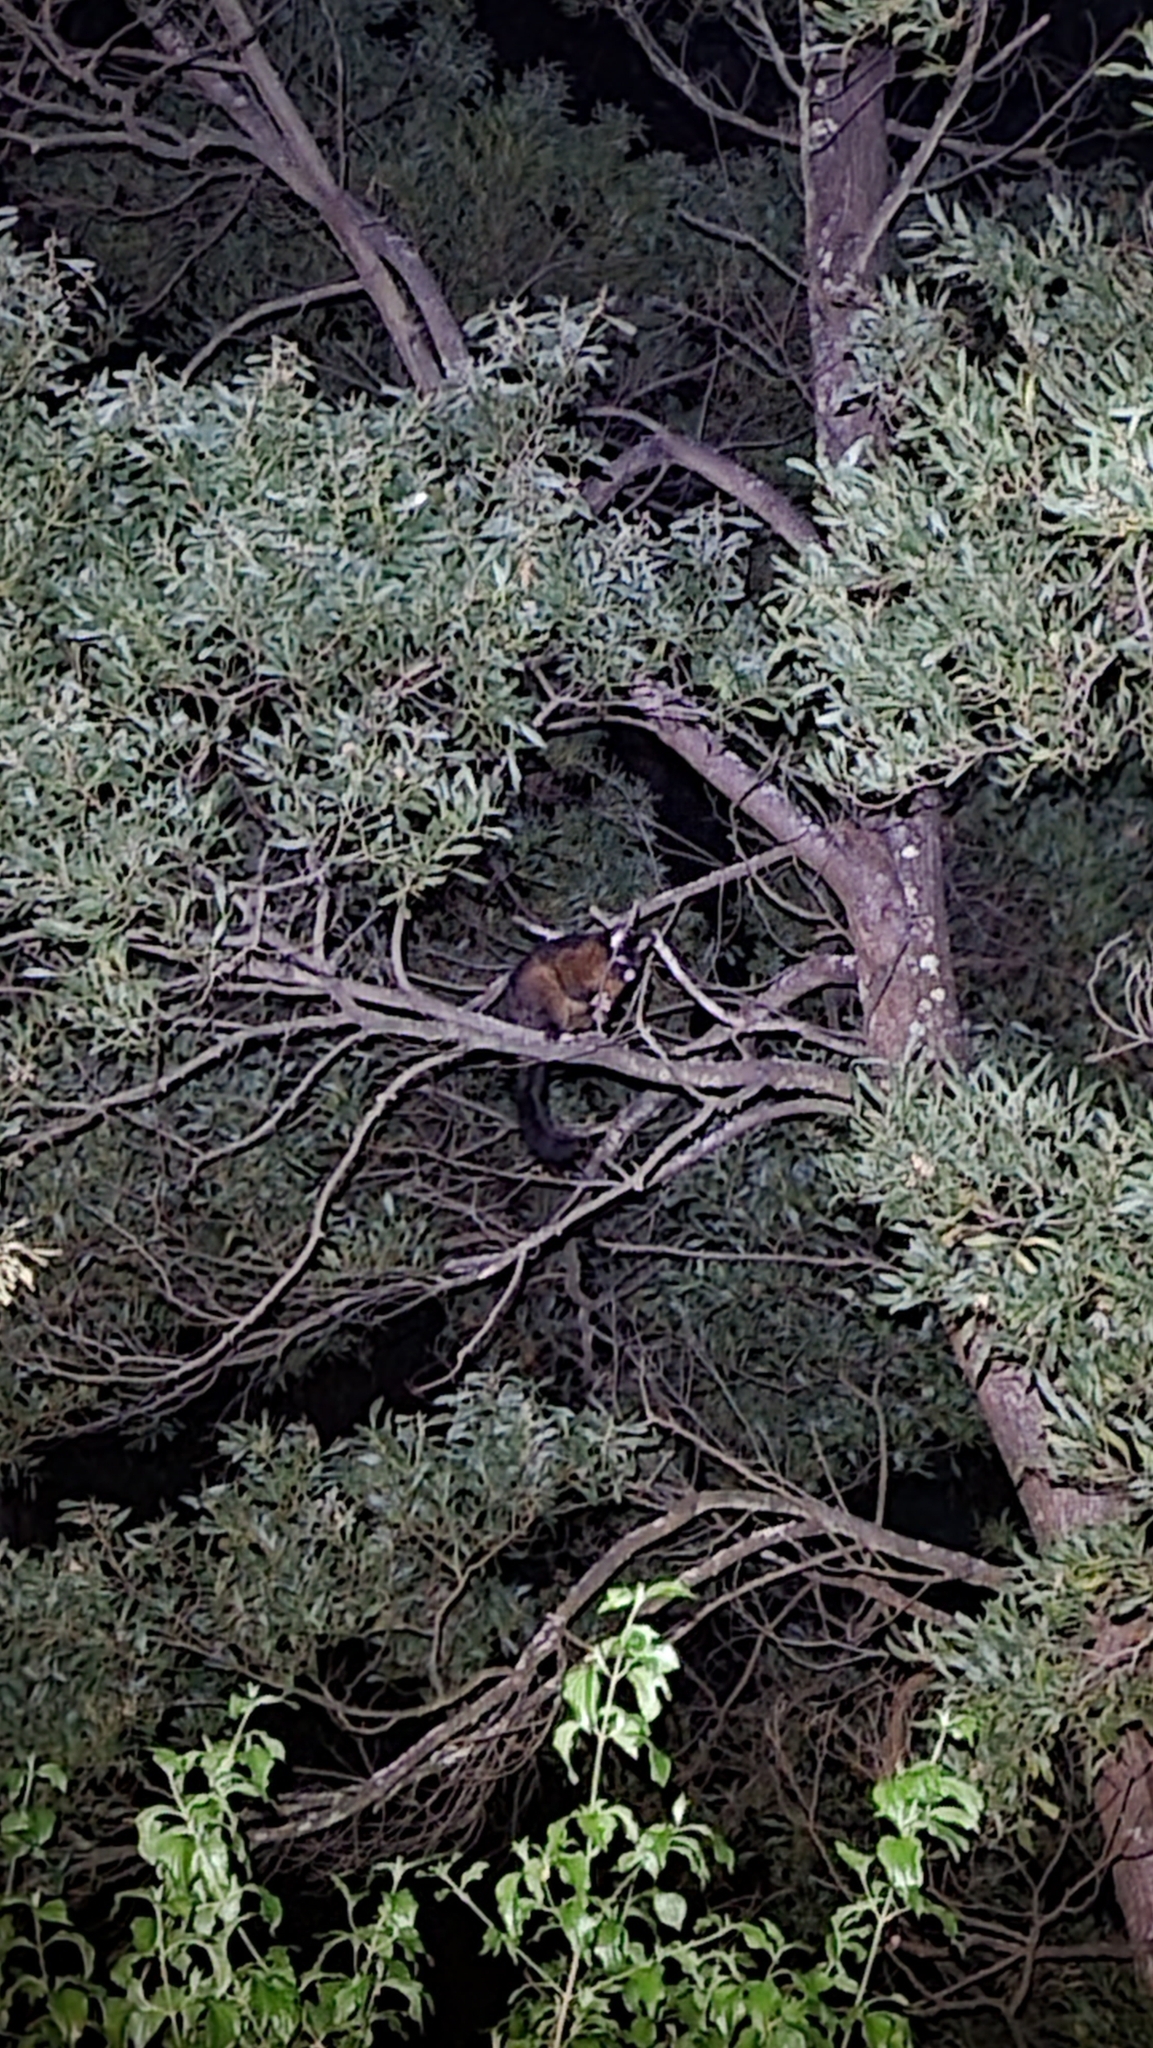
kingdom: Animalia
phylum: Chordata
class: Mammalia
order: Diprotodontia
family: Phalangeridae
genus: Trichosurus
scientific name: Trichosurus vulpecula
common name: Common brushtail
